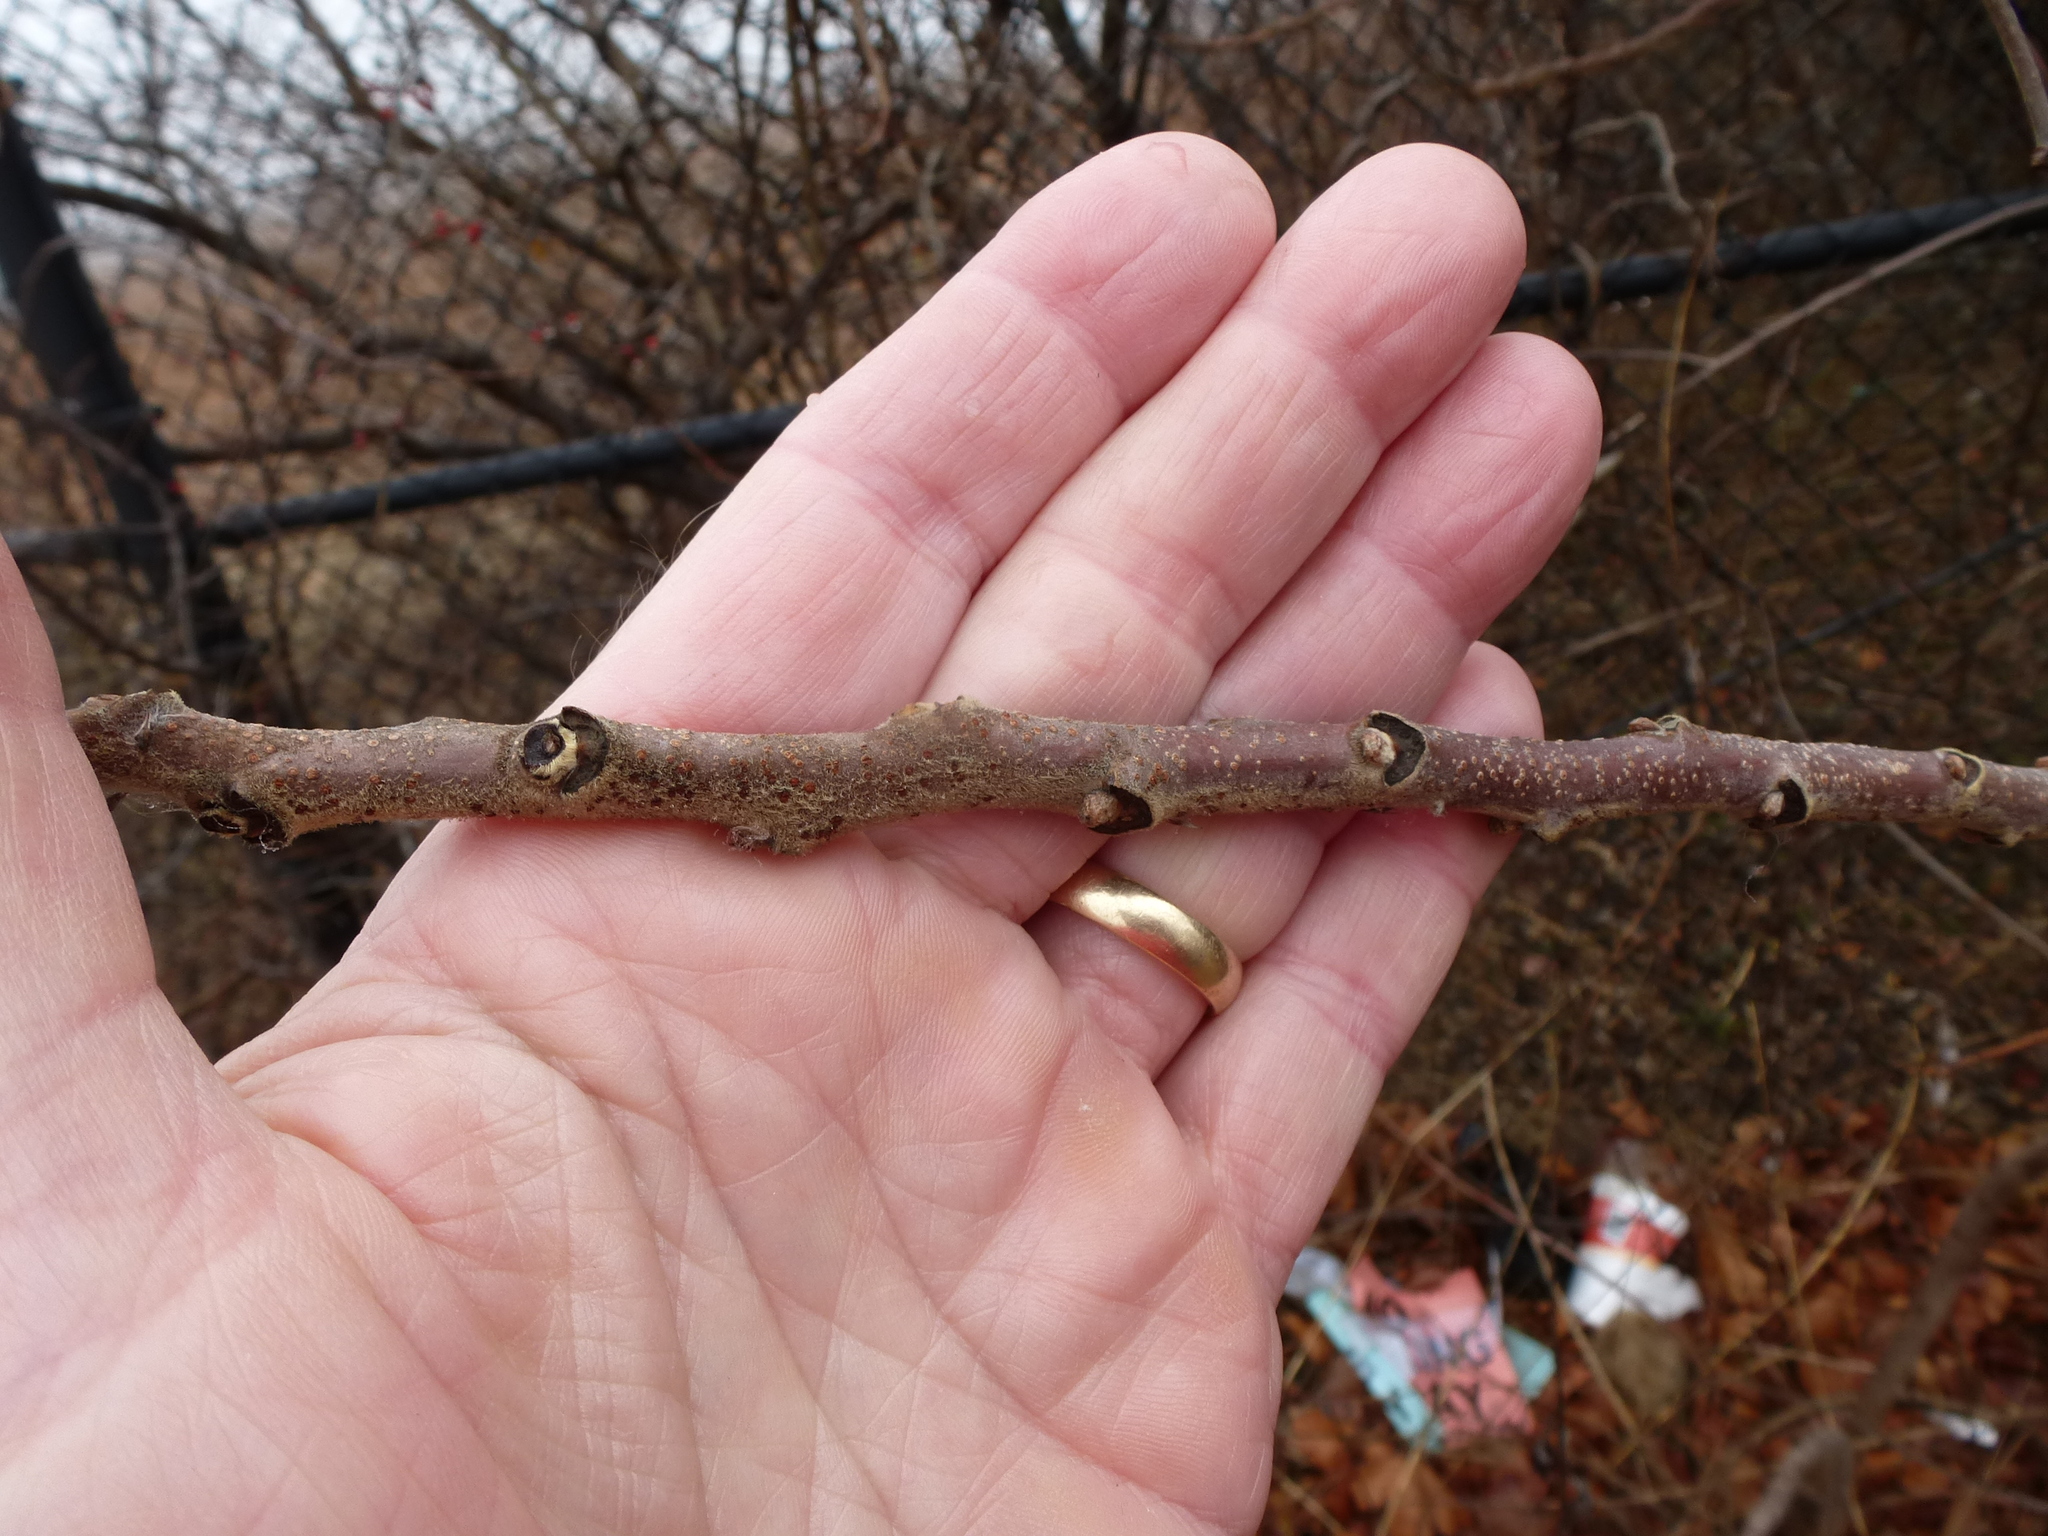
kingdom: Plantae
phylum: Tracheophyta
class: Magnoliopsida
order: Sapindales
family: Simaroubaceae
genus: Ailanthus
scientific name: Ailanthus altissima
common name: Tree-of-heaven
